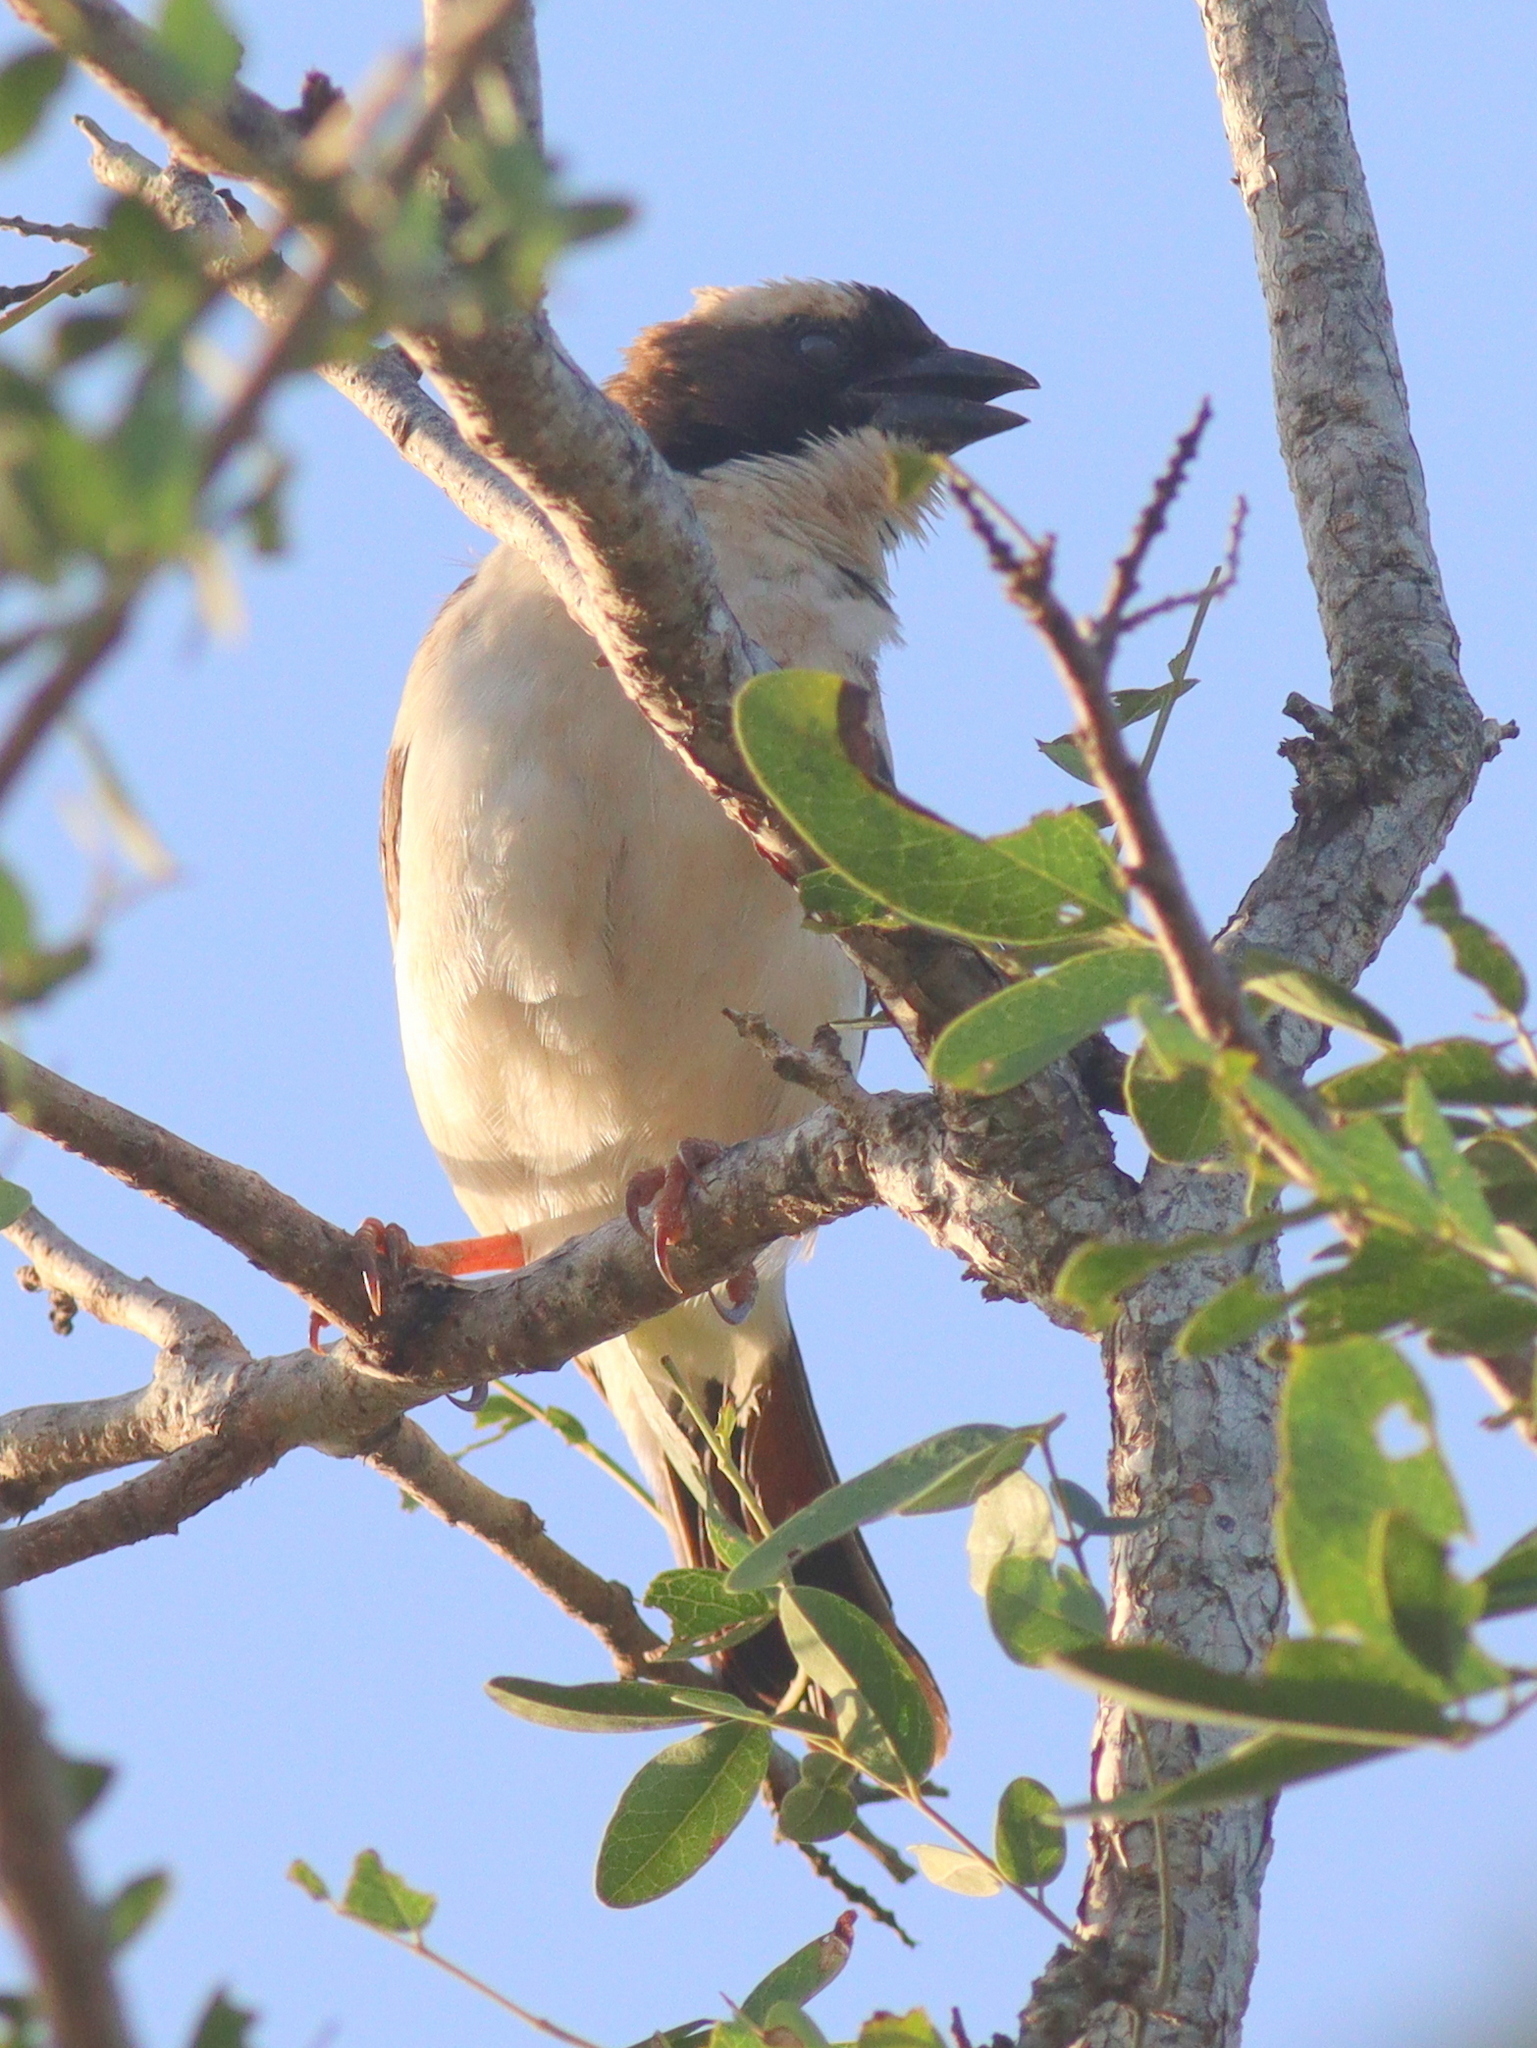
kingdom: Animalia
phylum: Chordata
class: Aves
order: Passeriformes
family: Passeridae
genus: Plocepasser
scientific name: Plocepasser mahali
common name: White-browed sparrow-weaver
